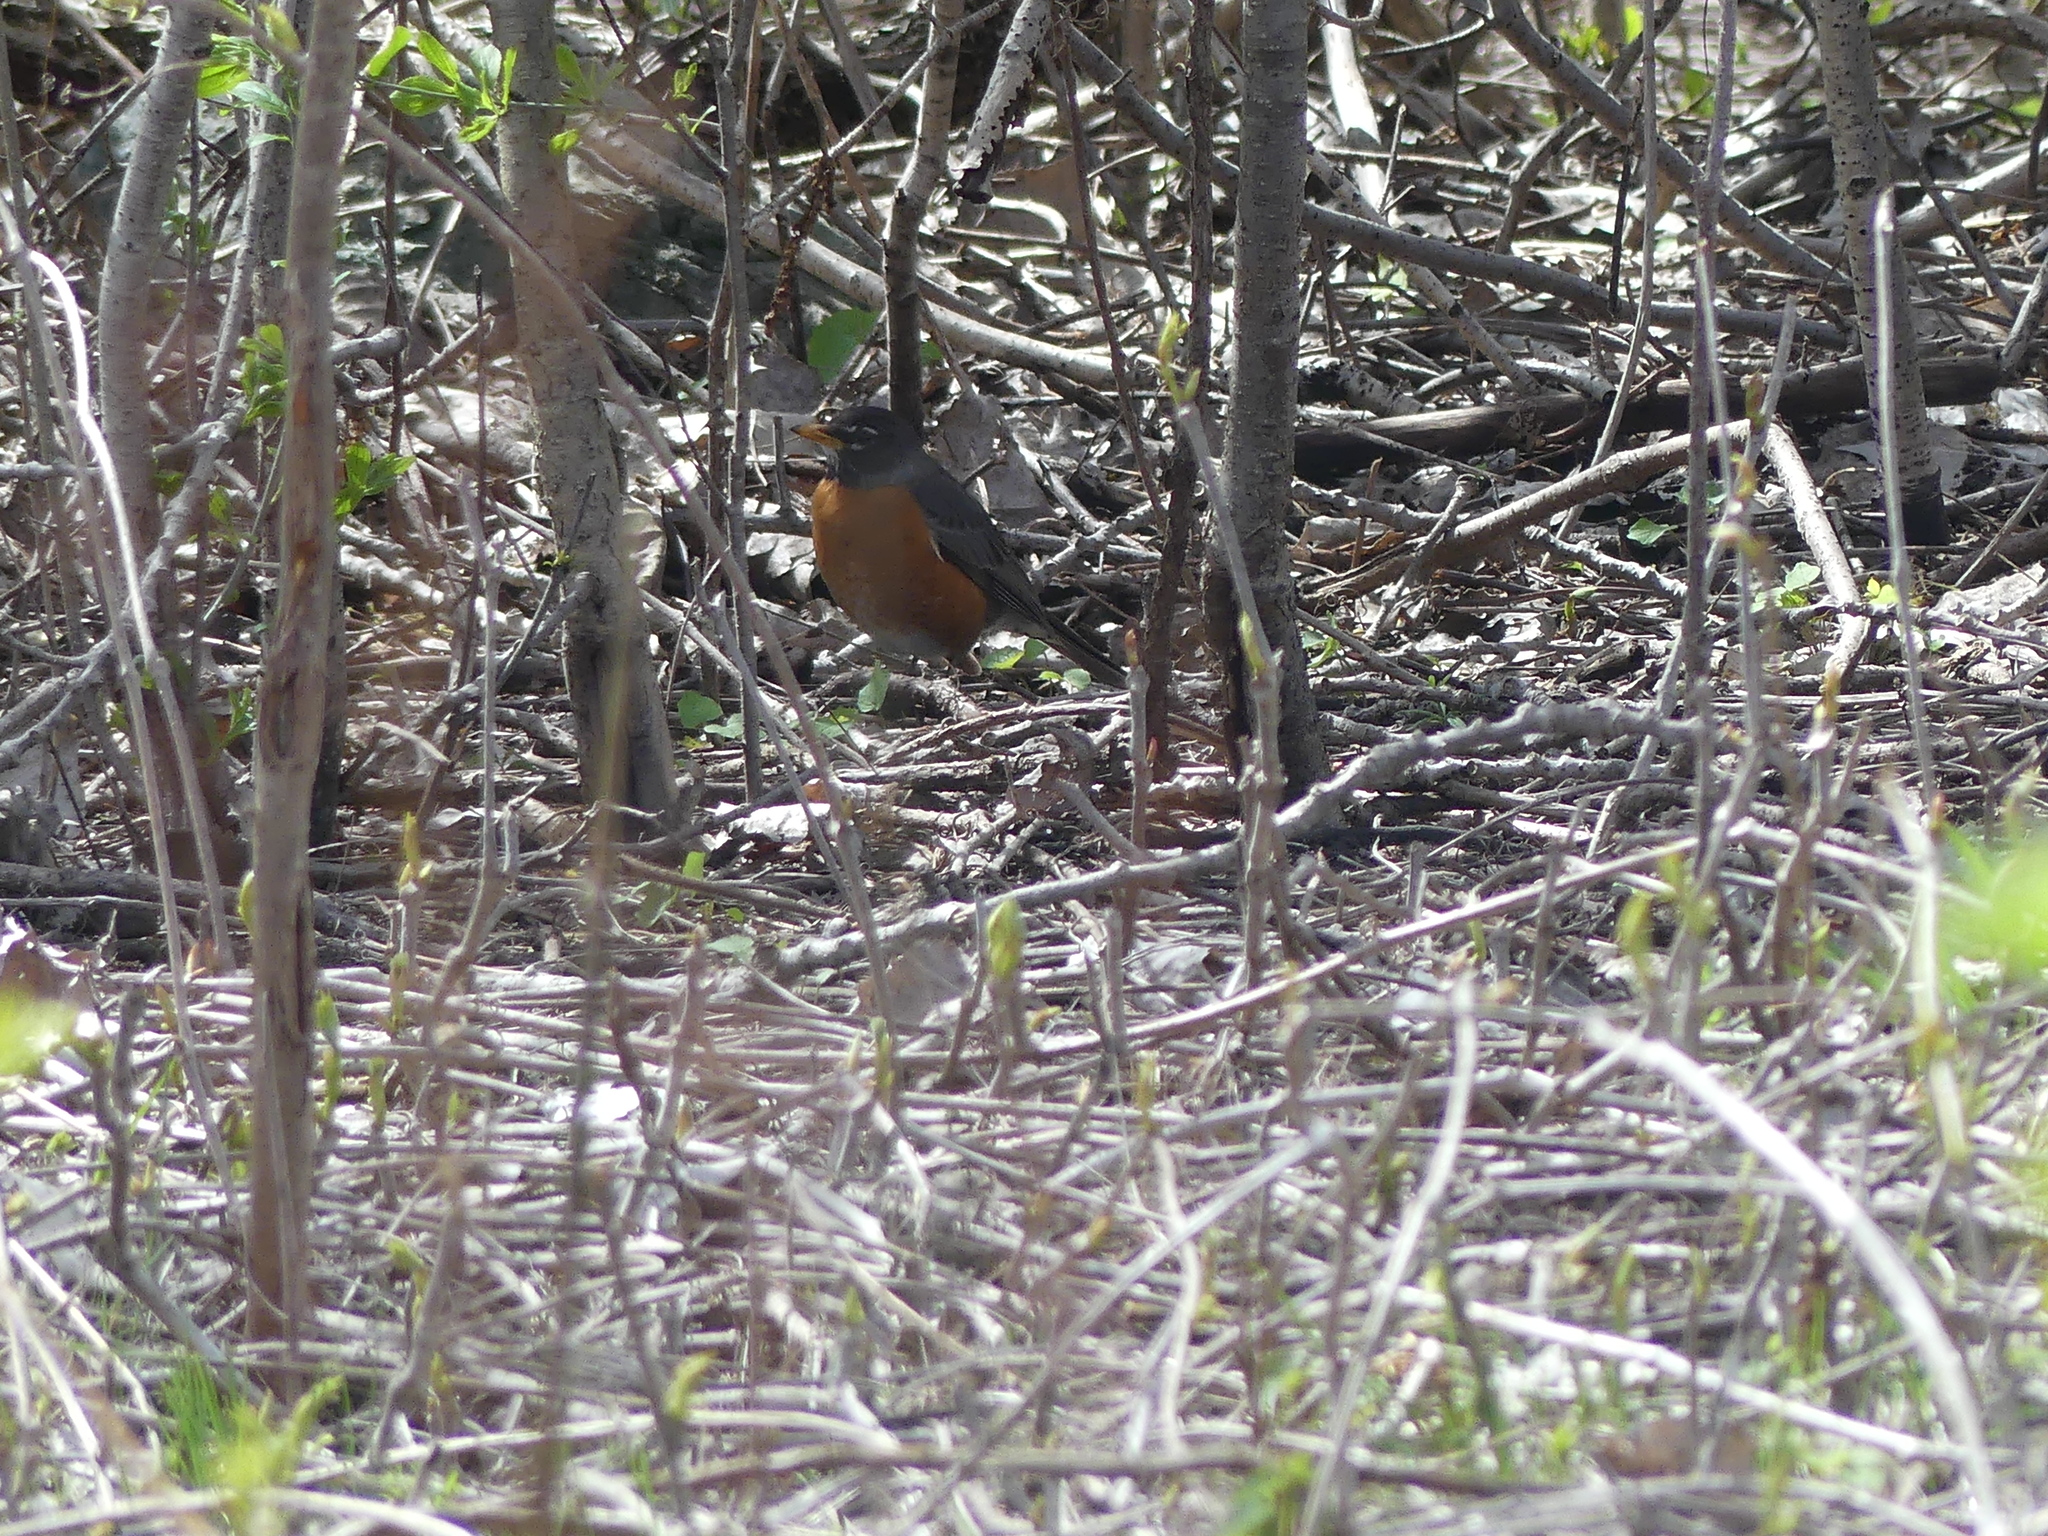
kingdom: Animalia
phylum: Chordata
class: Aves
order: Passeriformes
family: Turdidae
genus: Turdus
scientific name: Turdus migratorius
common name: American robin
